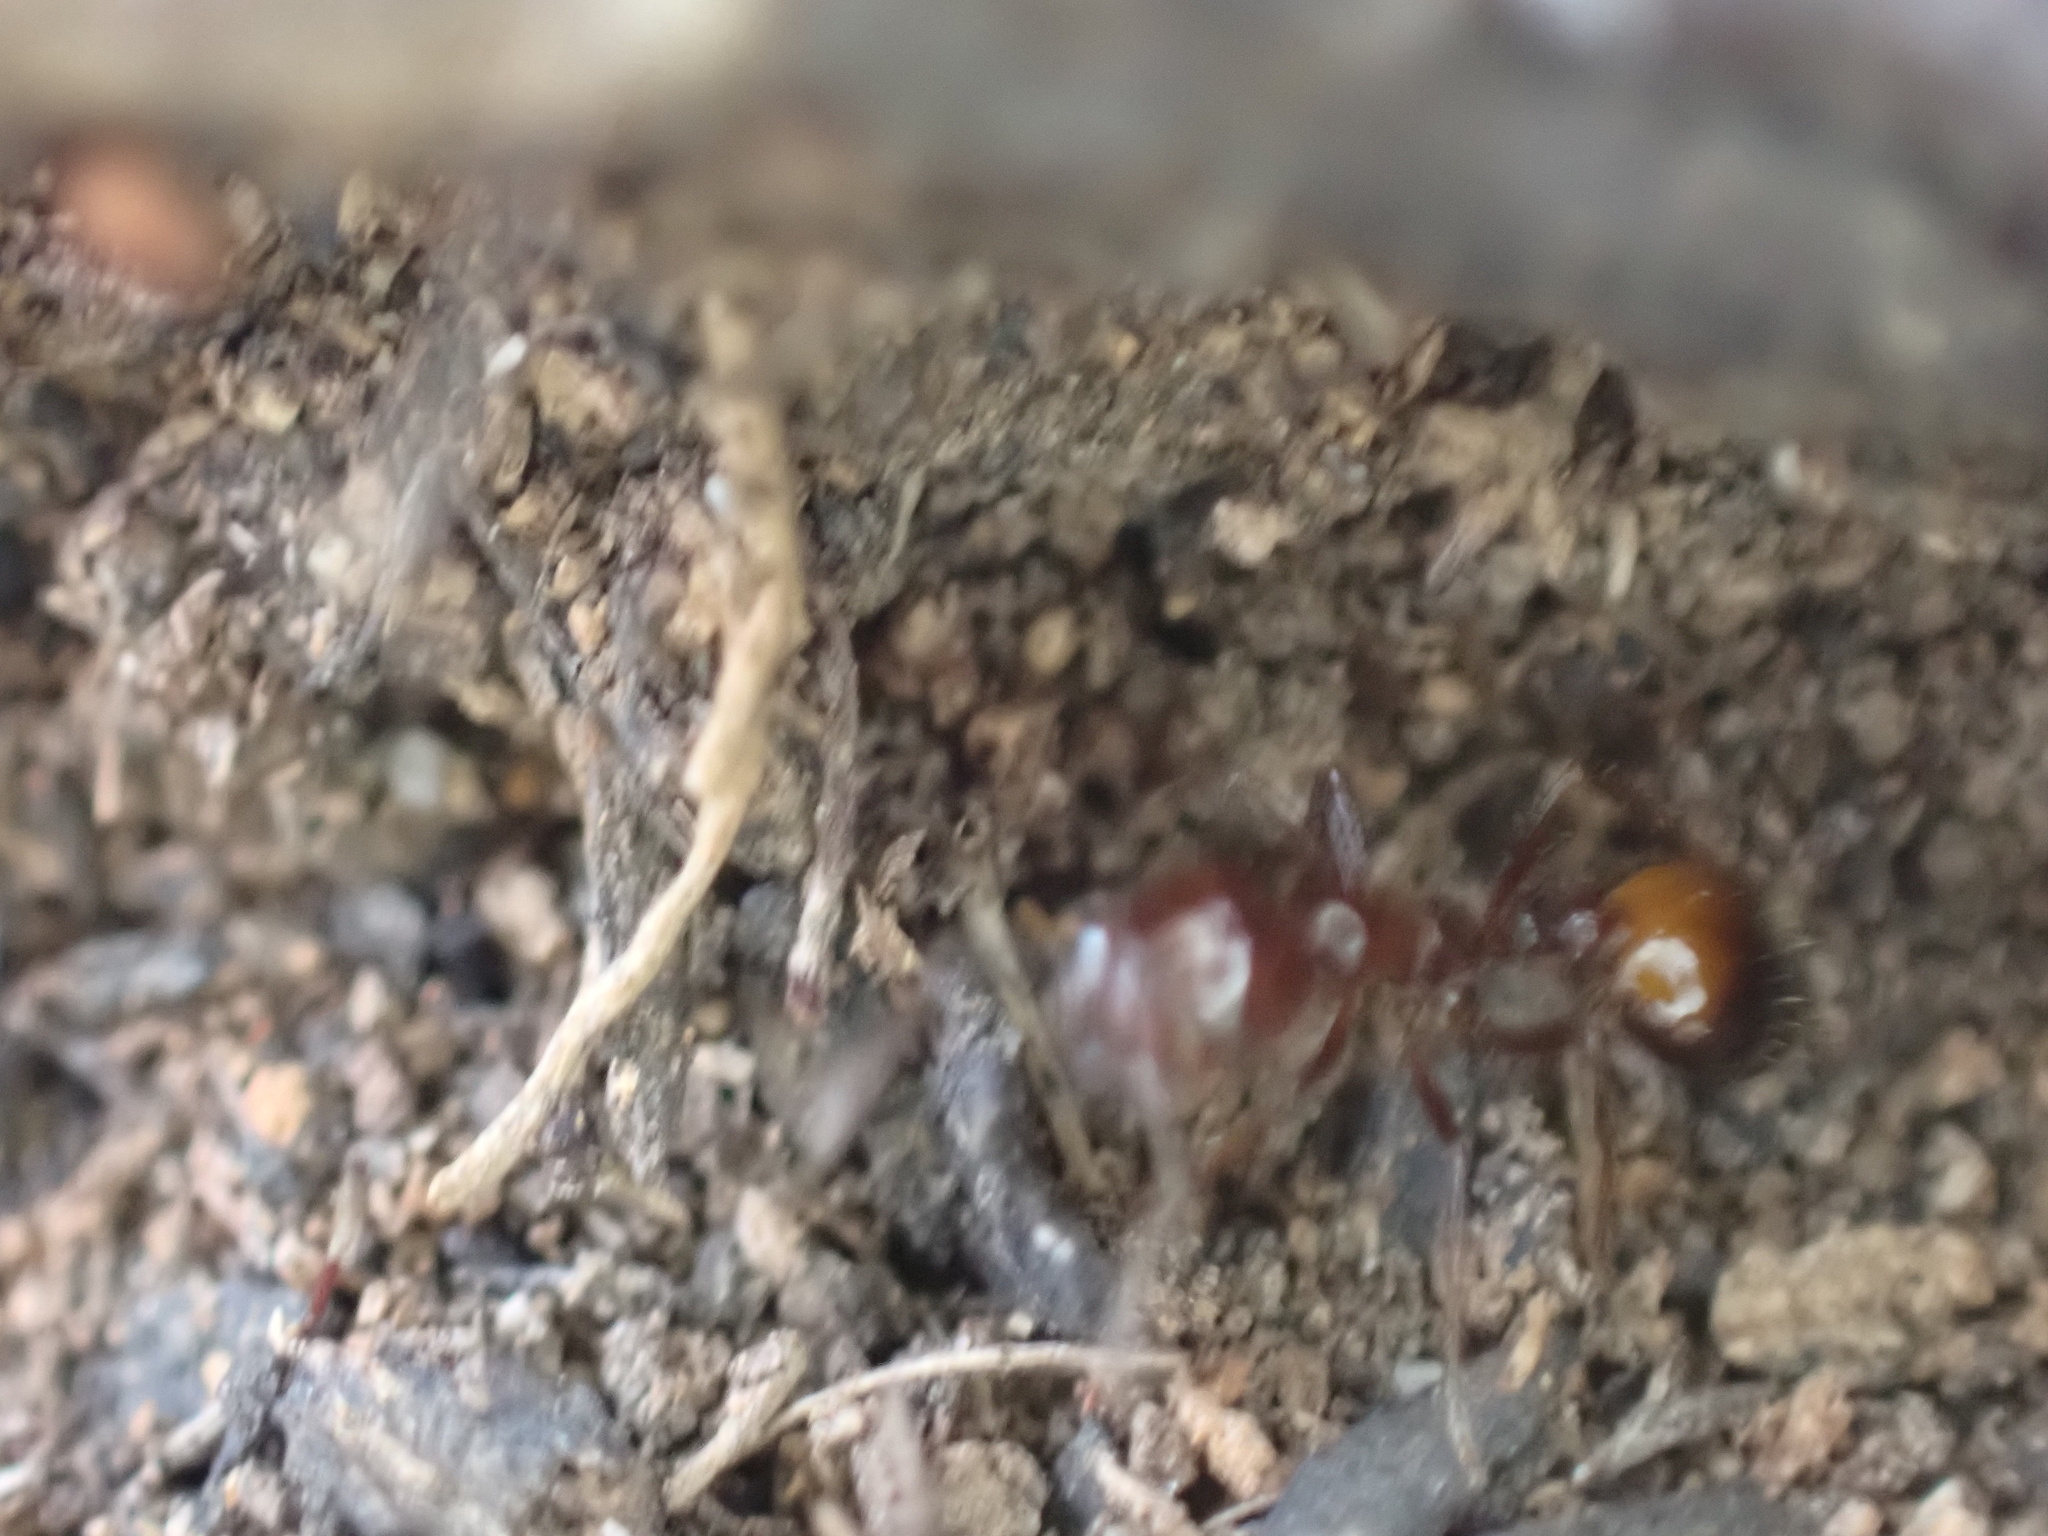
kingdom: Animalia
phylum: Arthropoda
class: Insecta
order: Hymenoptera
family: Formicidae
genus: Solenopsis
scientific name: Solenopsis
